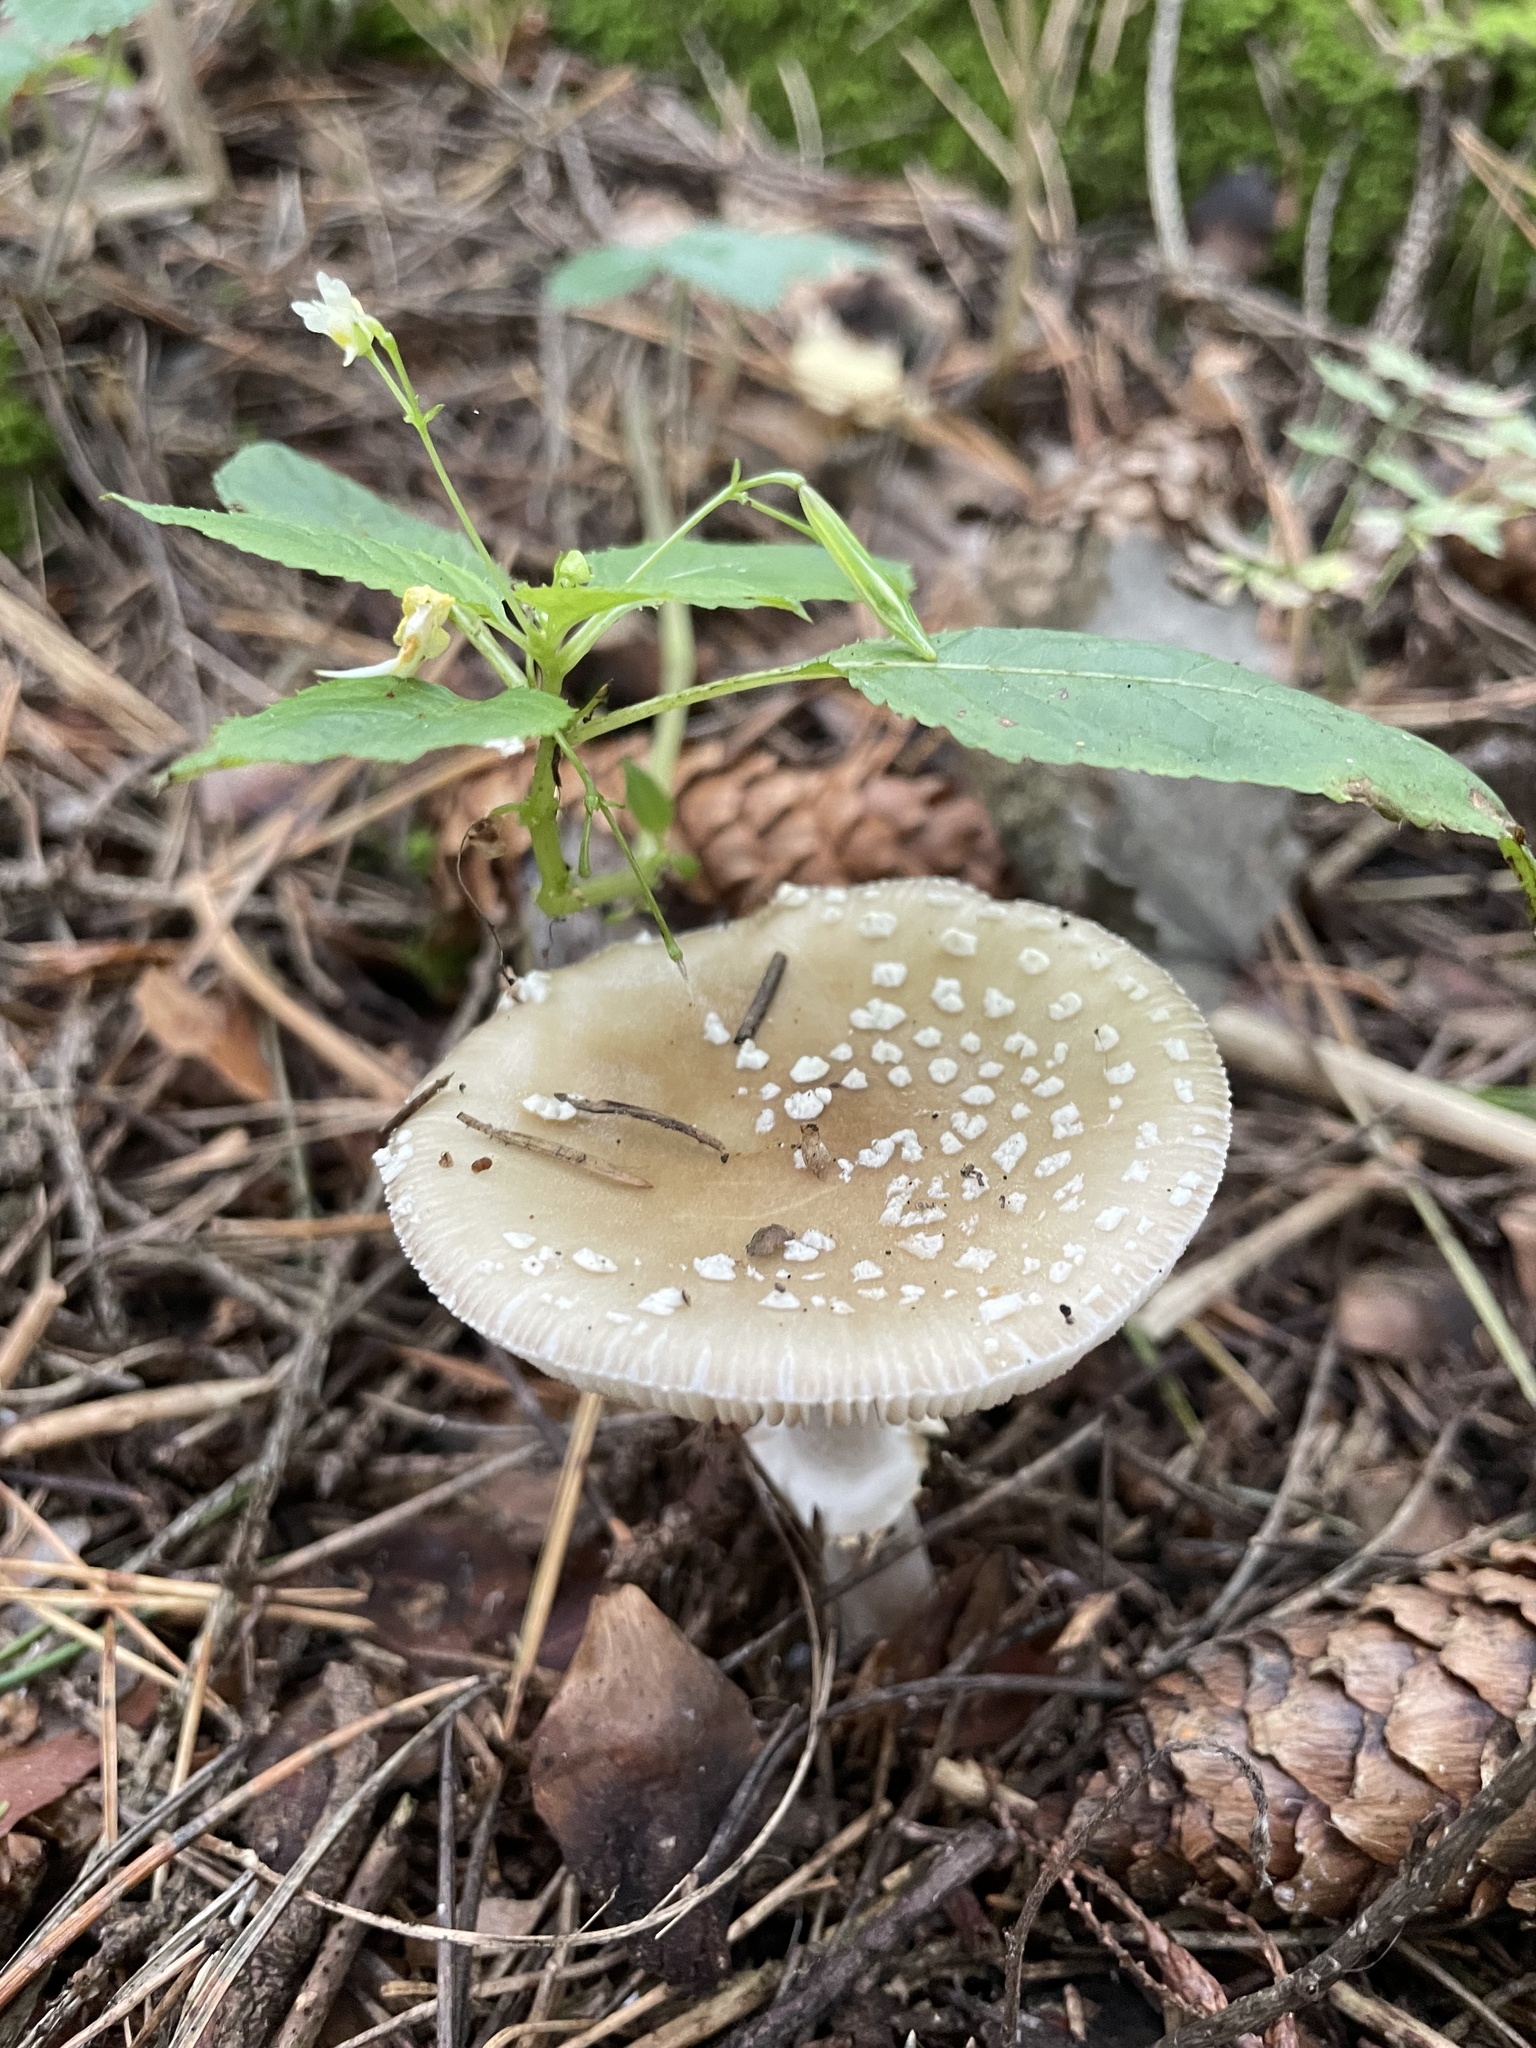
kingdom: Fungi
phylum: Basidiomycota
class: Agaricomycetes
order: Agaricales
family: Amanitaceae
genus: Amanita
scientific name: Amanita pantherina
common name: Panthercap
